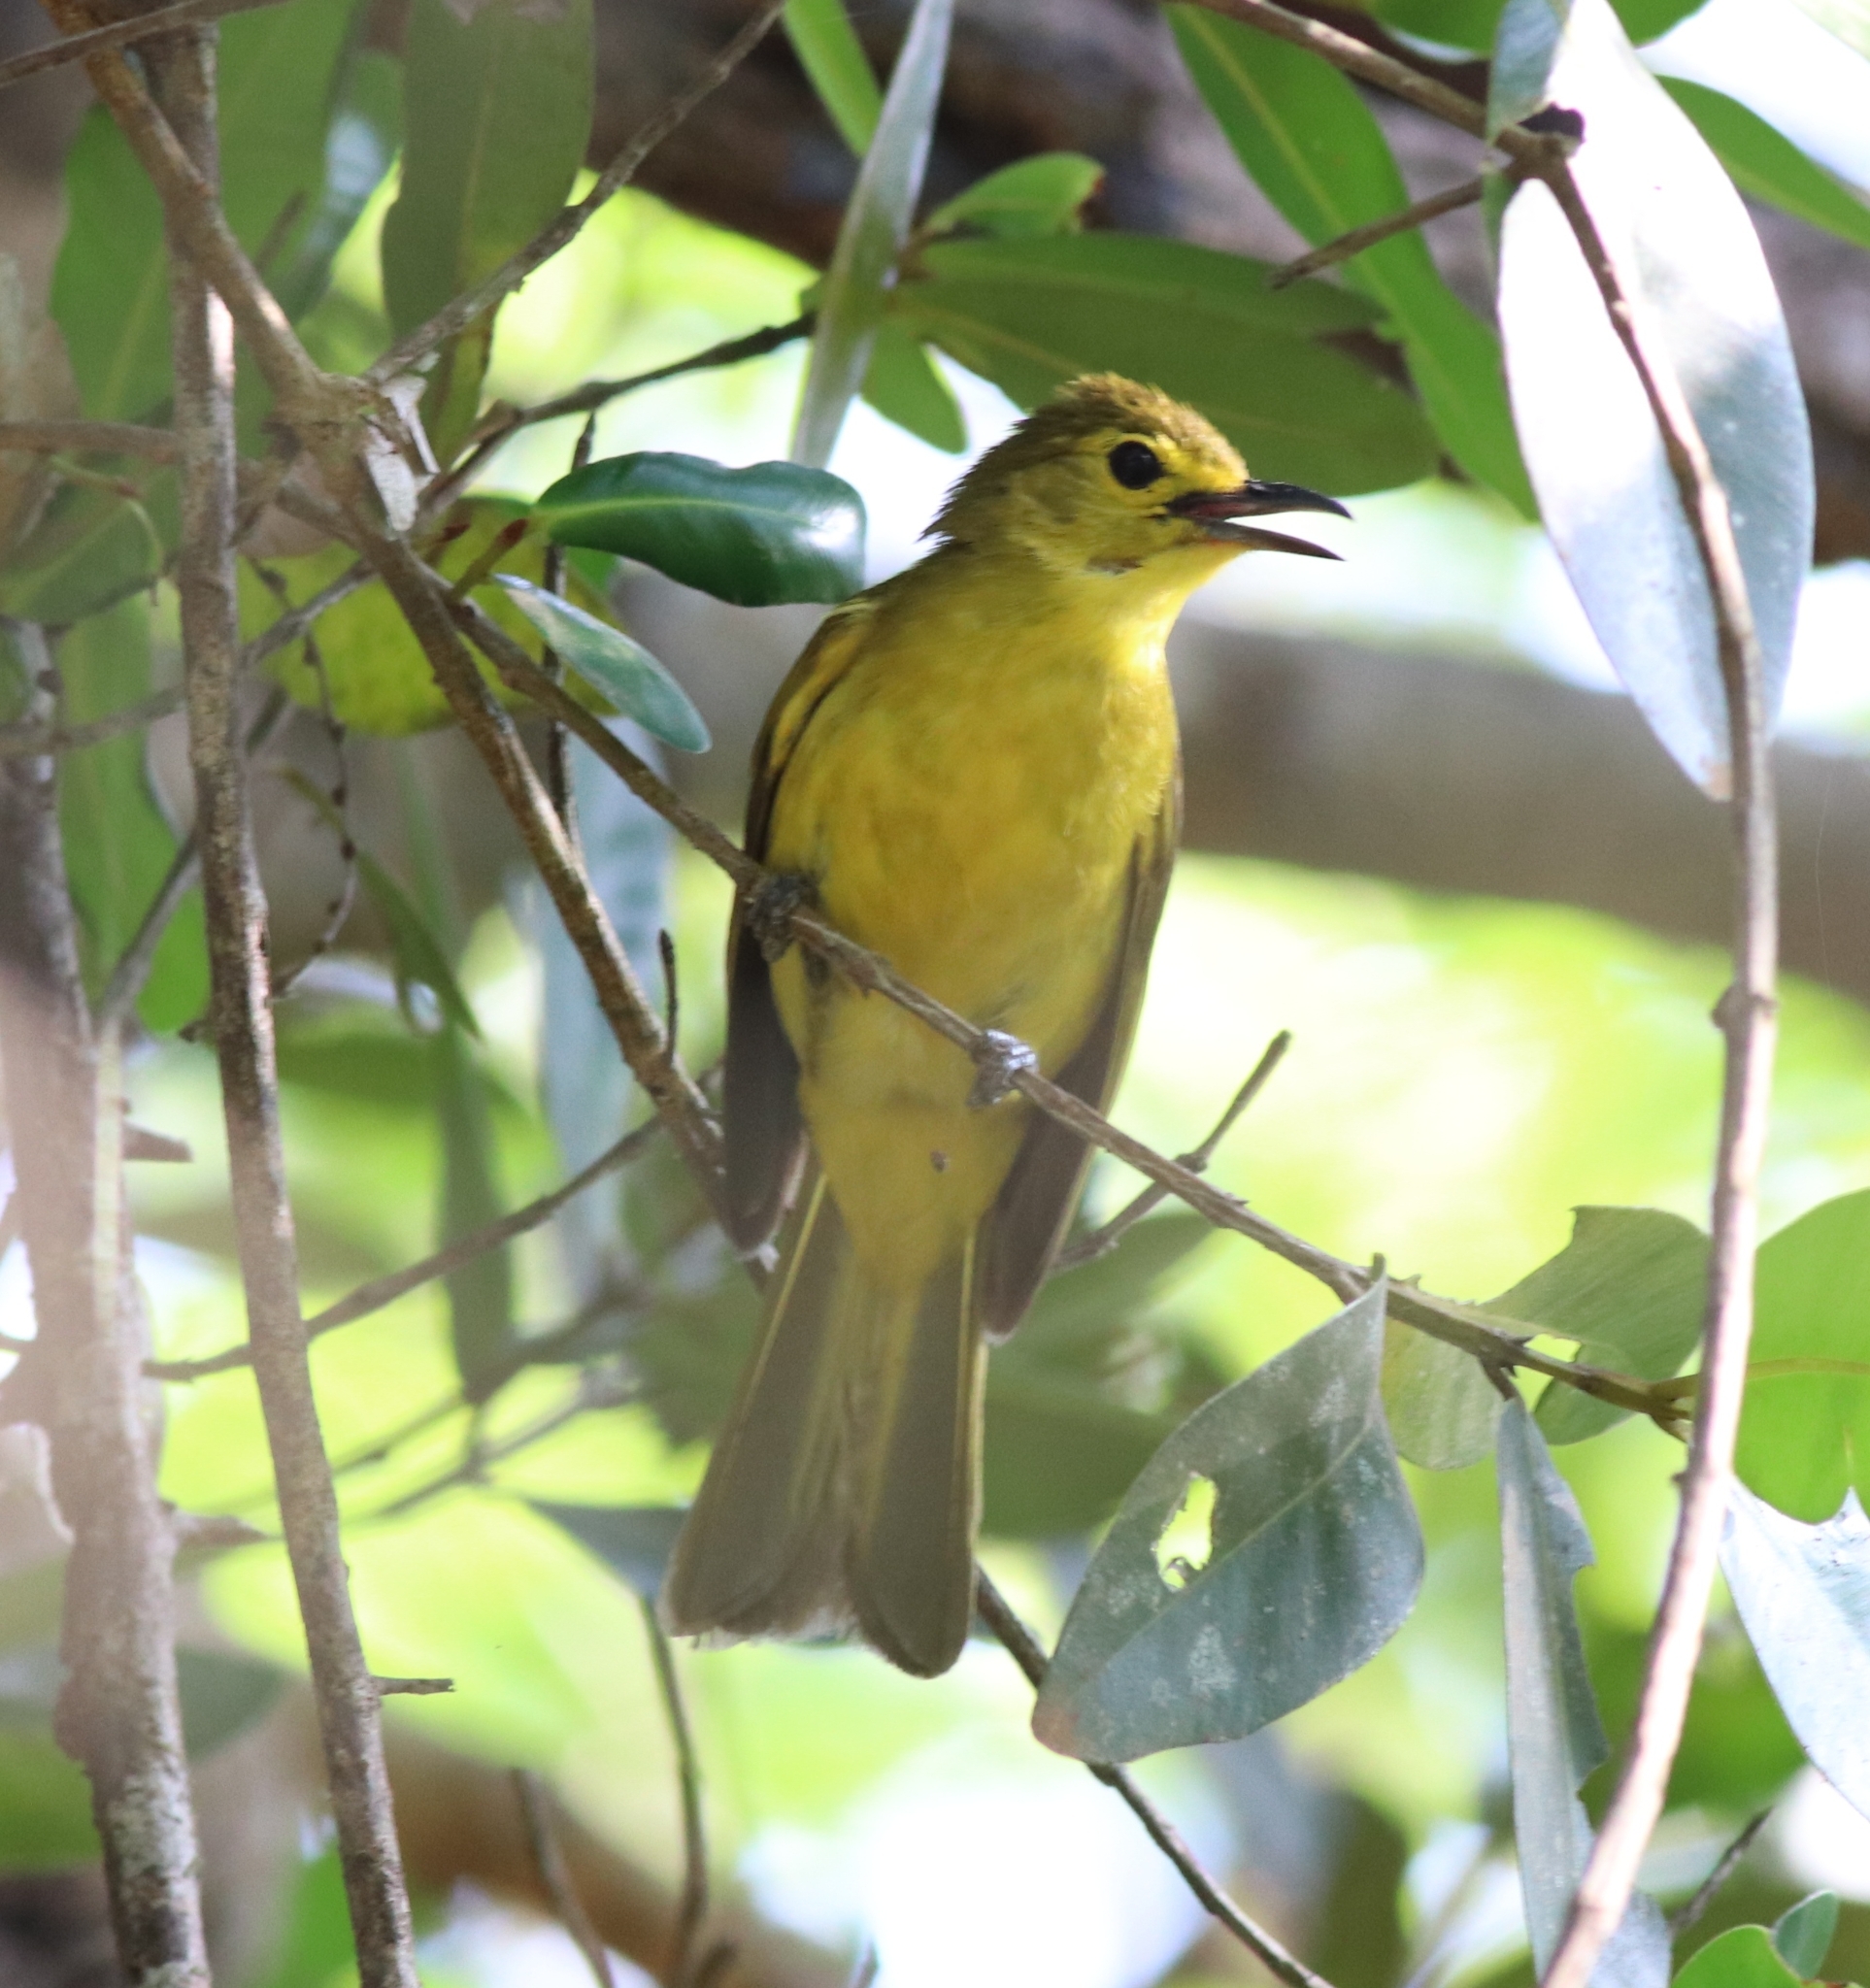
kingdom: Animalia
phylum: Chordata
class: Aves
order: Passeriformes
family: Pycnonotidae
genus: Acritillas
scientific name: Acritillas indica
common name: Yellow-browed bulbul
